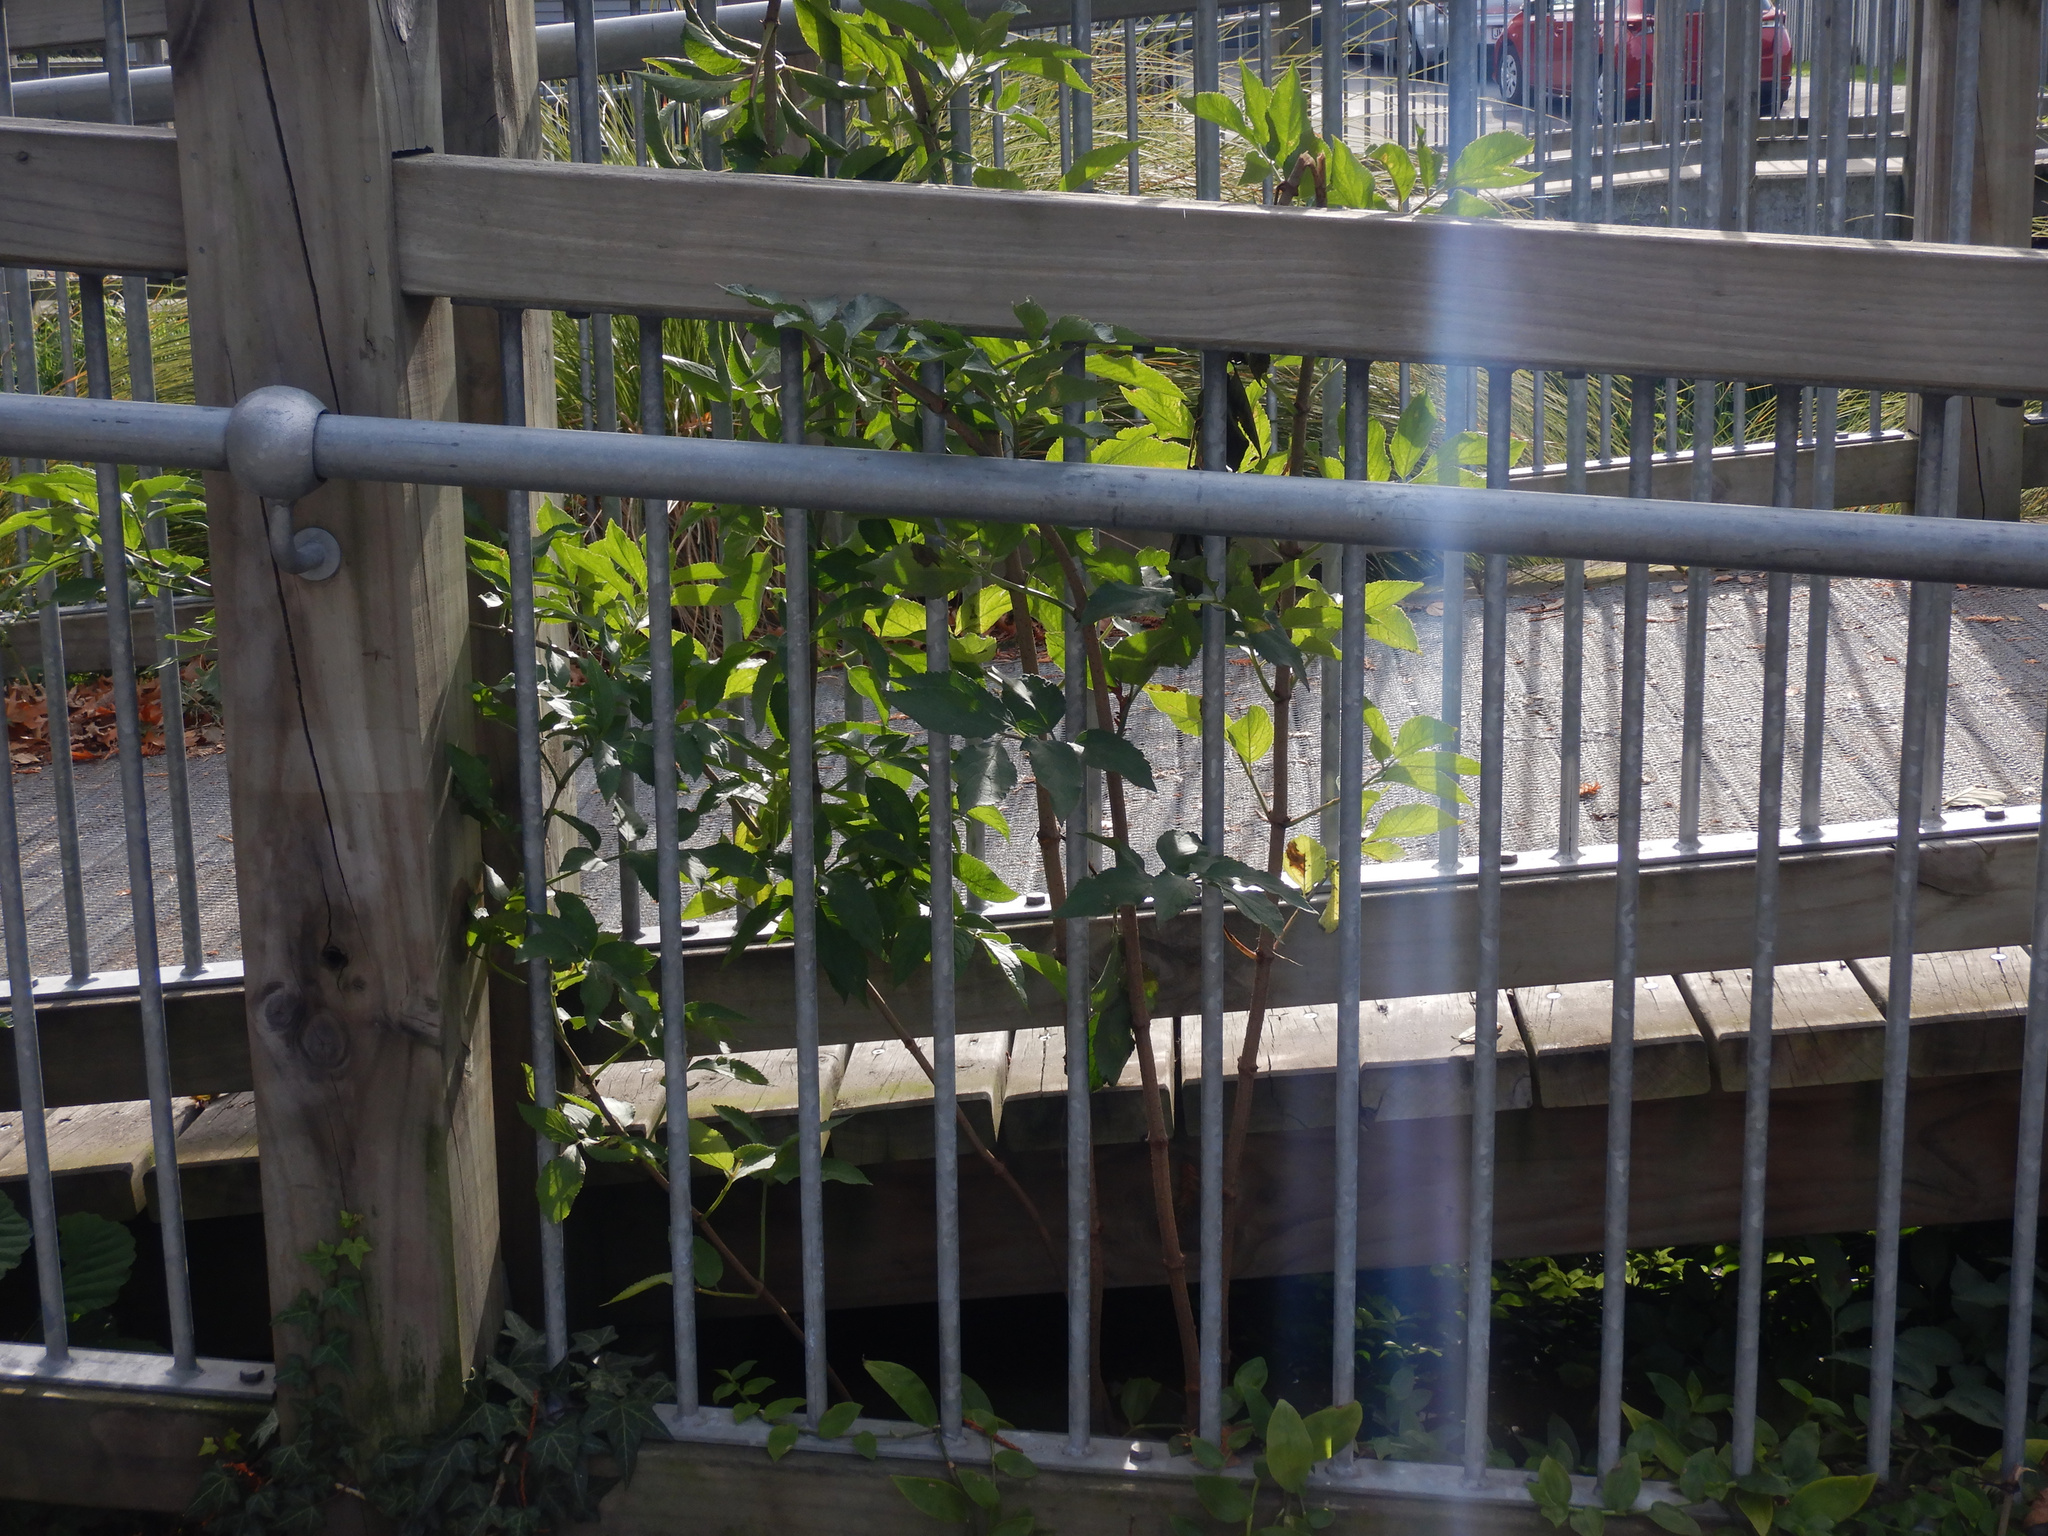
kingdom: Plantae
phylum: Tracheophyta
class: Magnoliopsida
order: Dipsacales
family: Viburnaceae
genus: Sambucus
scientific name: Sambucus nigra
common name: Elder
